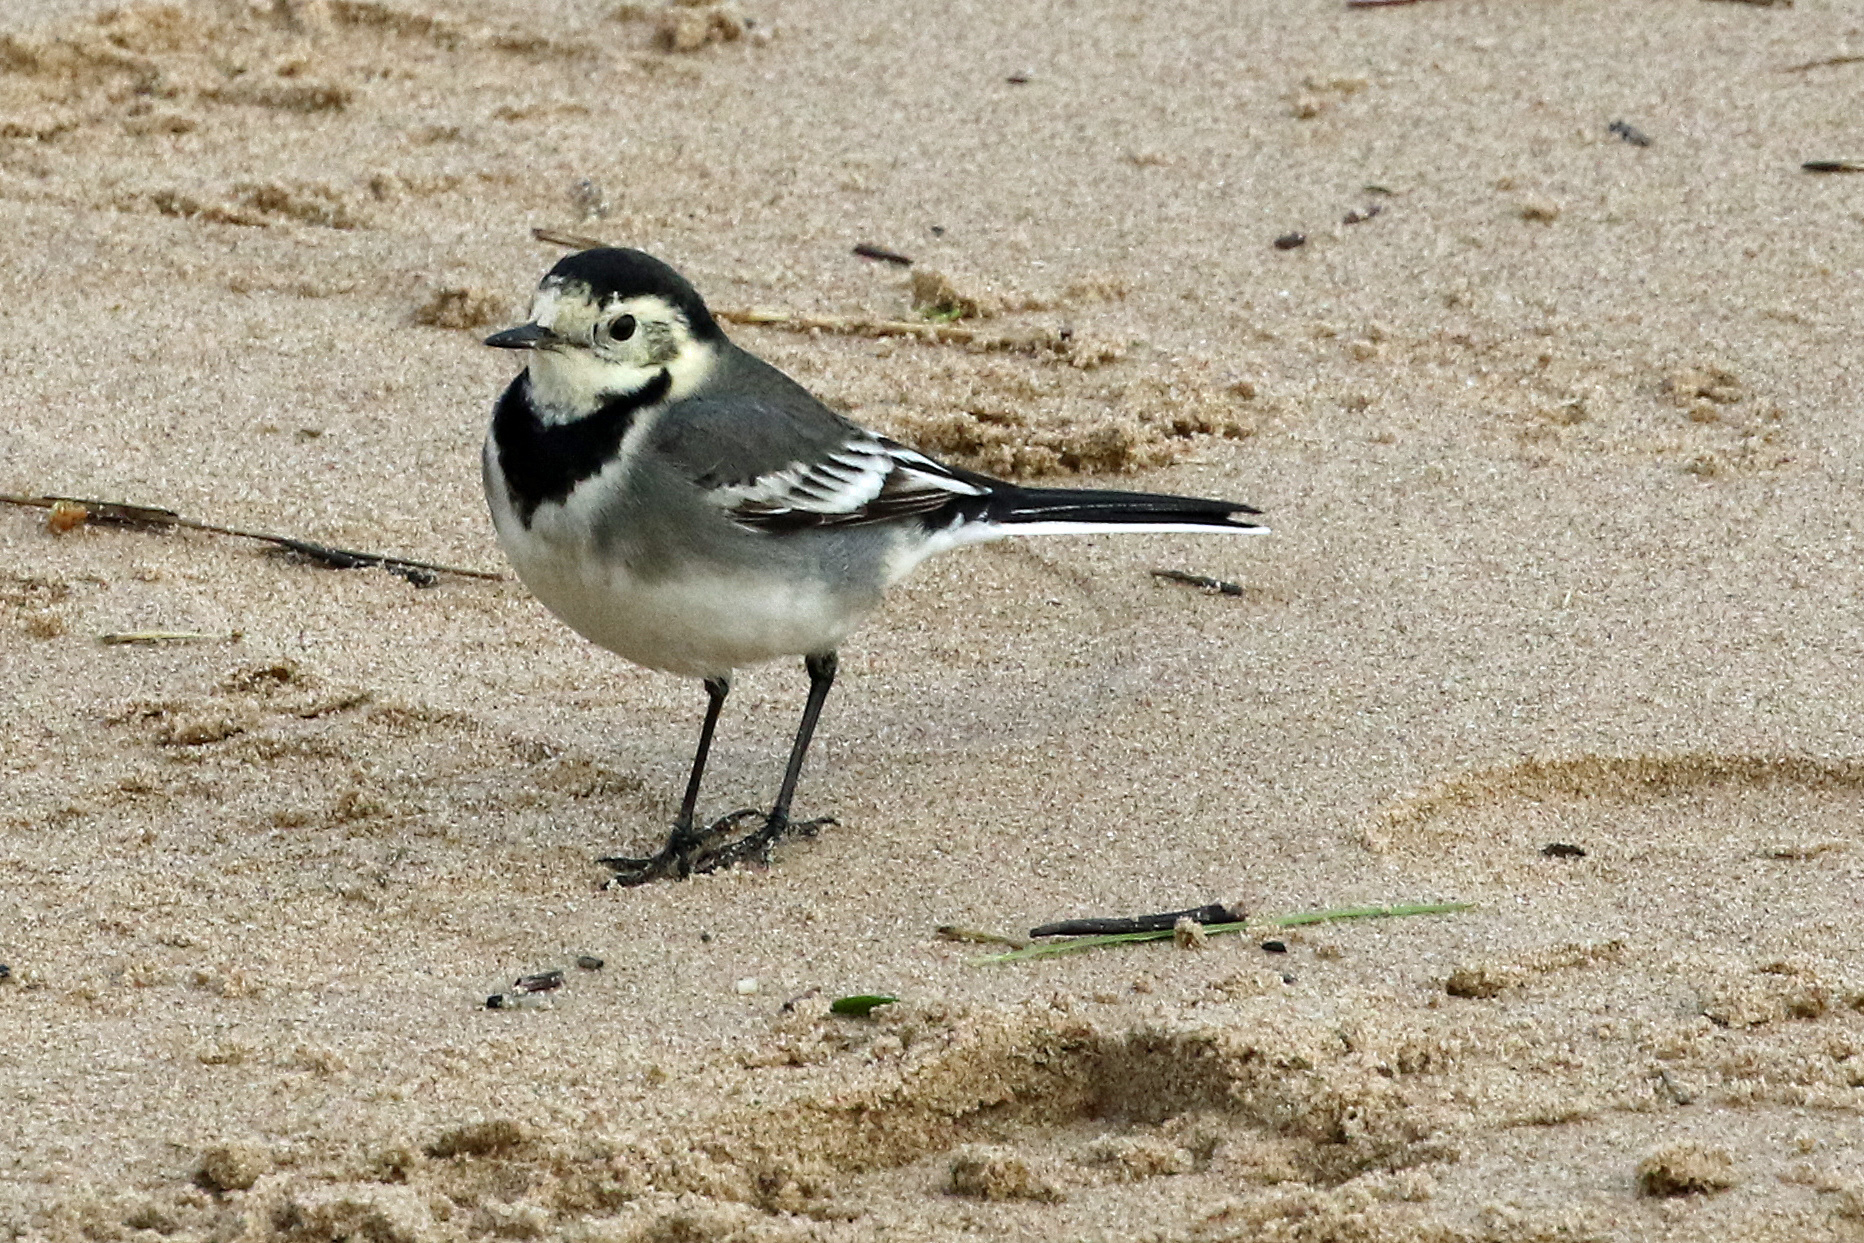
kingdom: Animalia
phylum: Chordata
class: Aves
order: Passeriformes
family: Motacillidae
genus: Motacilla
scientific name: Motacilla alba
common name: White wagtail
